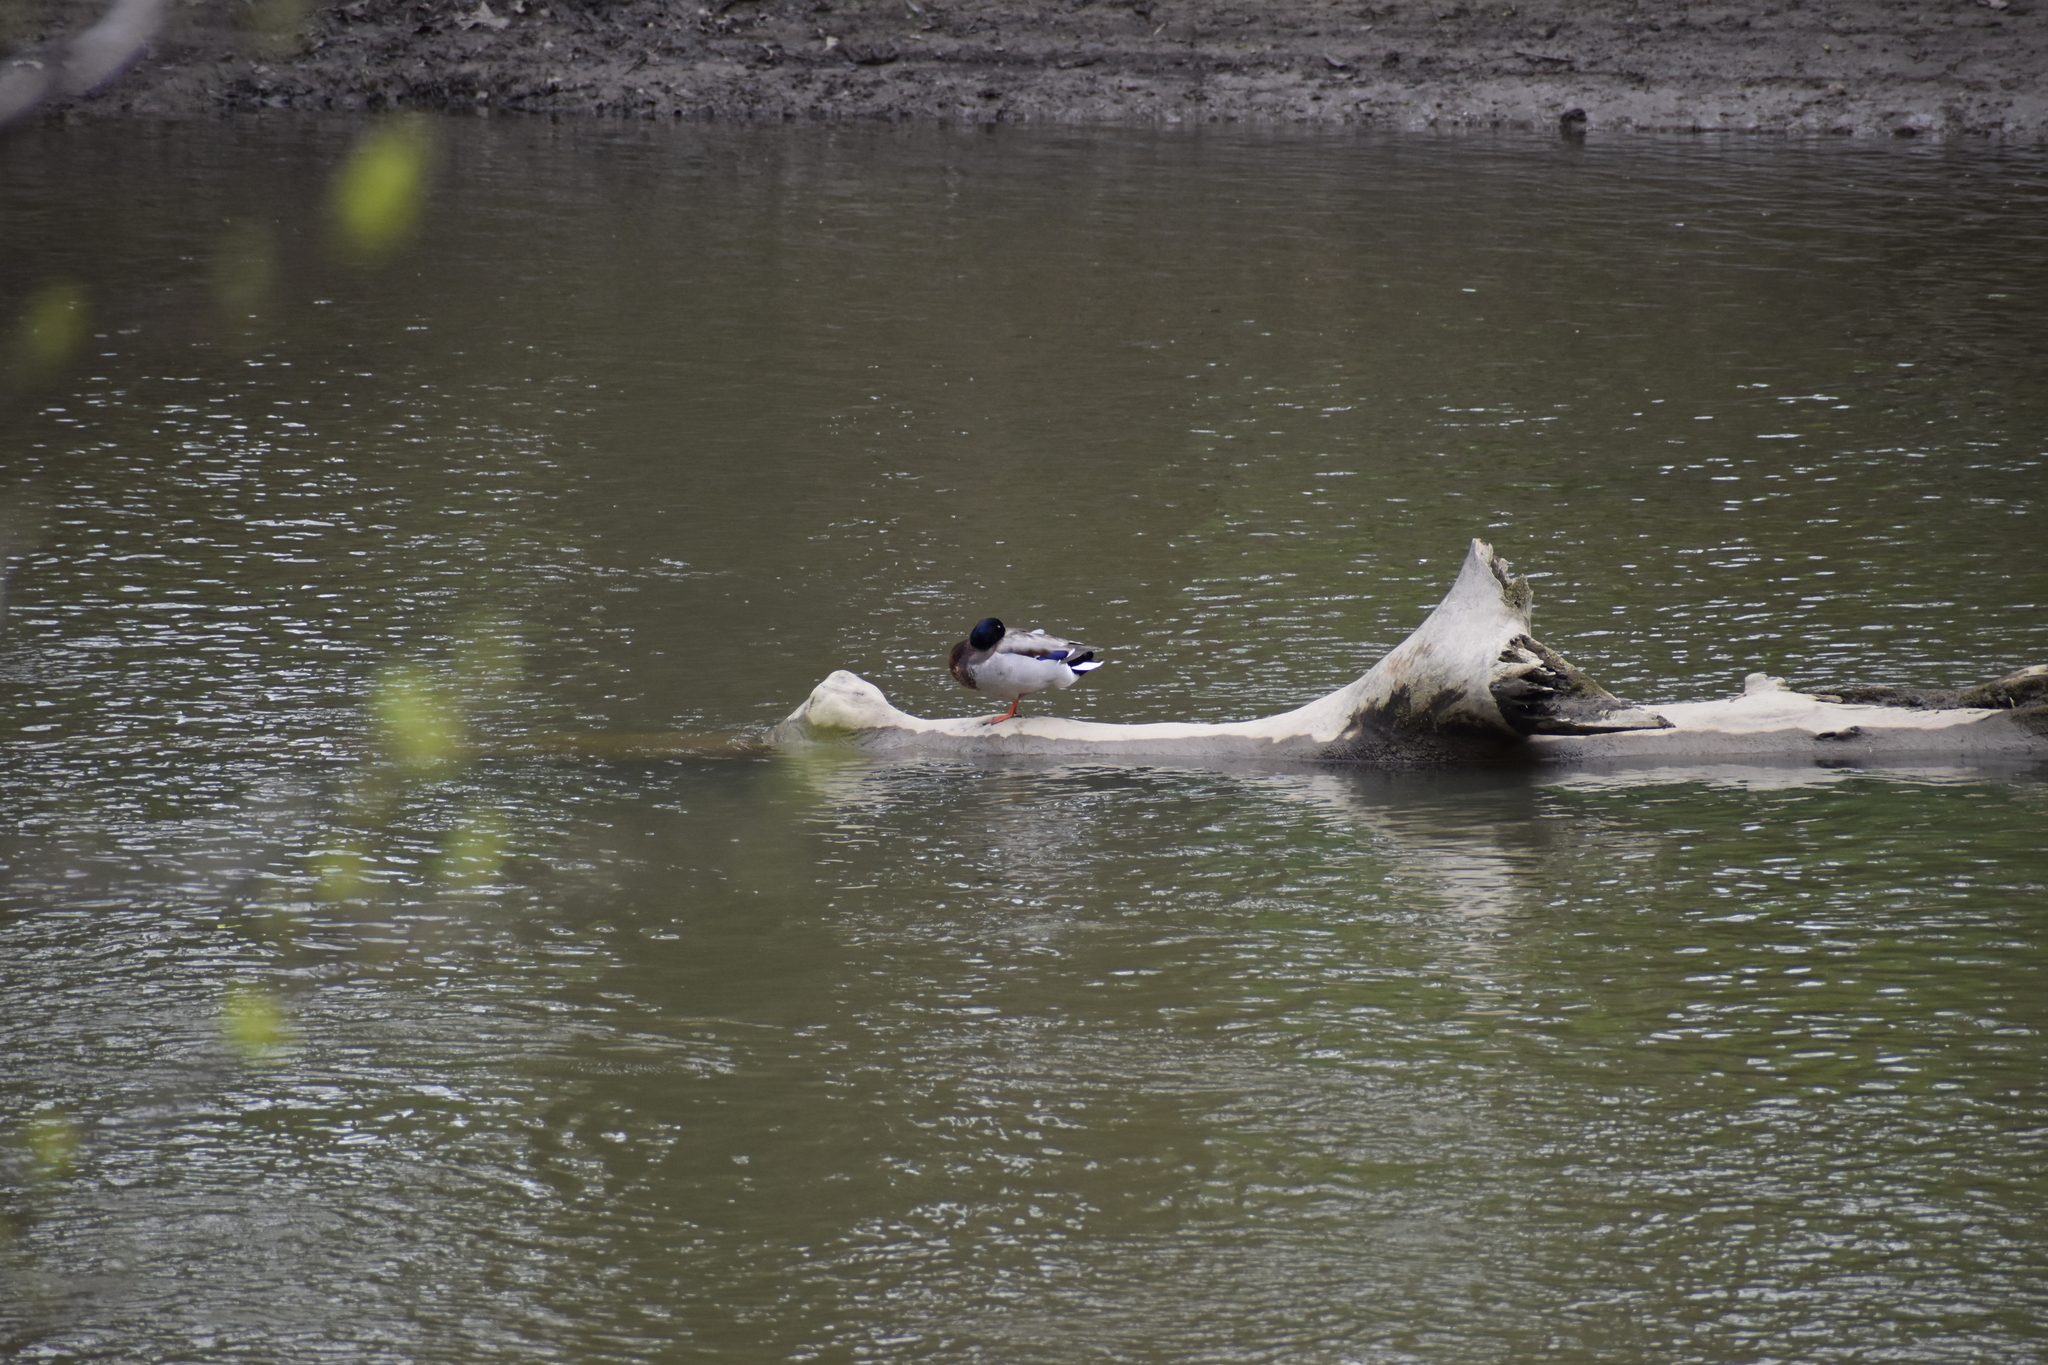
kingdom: Animalia
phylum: Chordata
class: Aves
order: Anseriformes
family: Anatidae
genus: Anas
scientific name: Anas platyrhynchos
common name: Mallard
